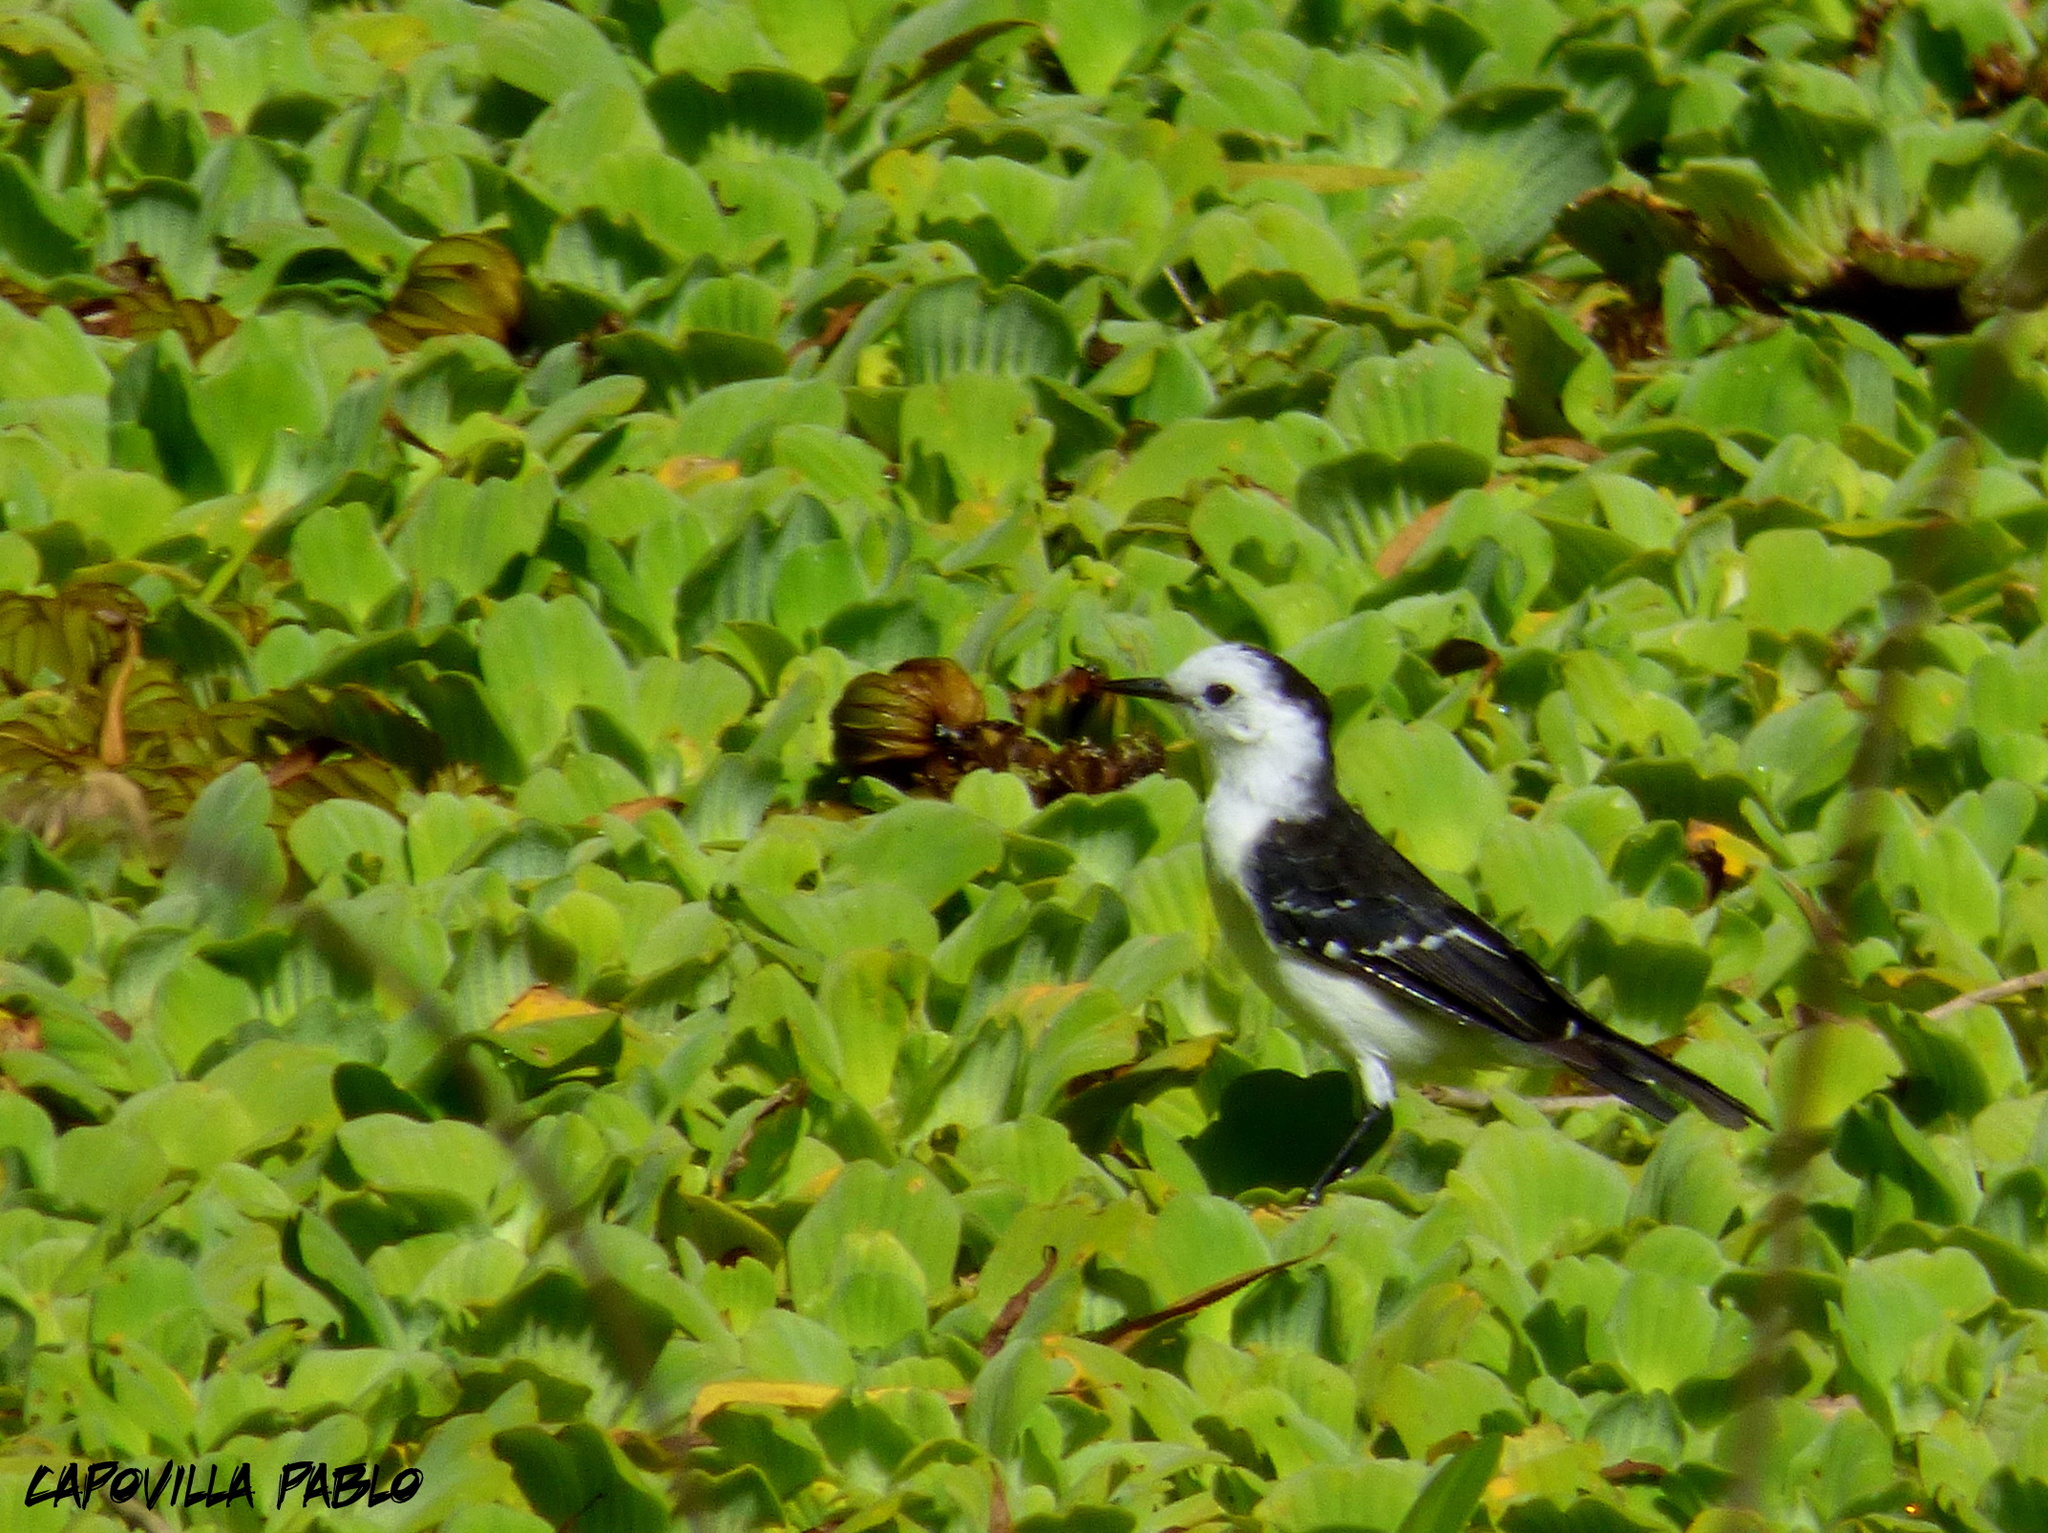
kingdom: Animalia
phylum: Chordata
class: Aves
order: Passeriformes
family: Tyrannidae
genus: Fluvicola
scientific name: Fluvicola pica
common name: Pied water-tyrant
